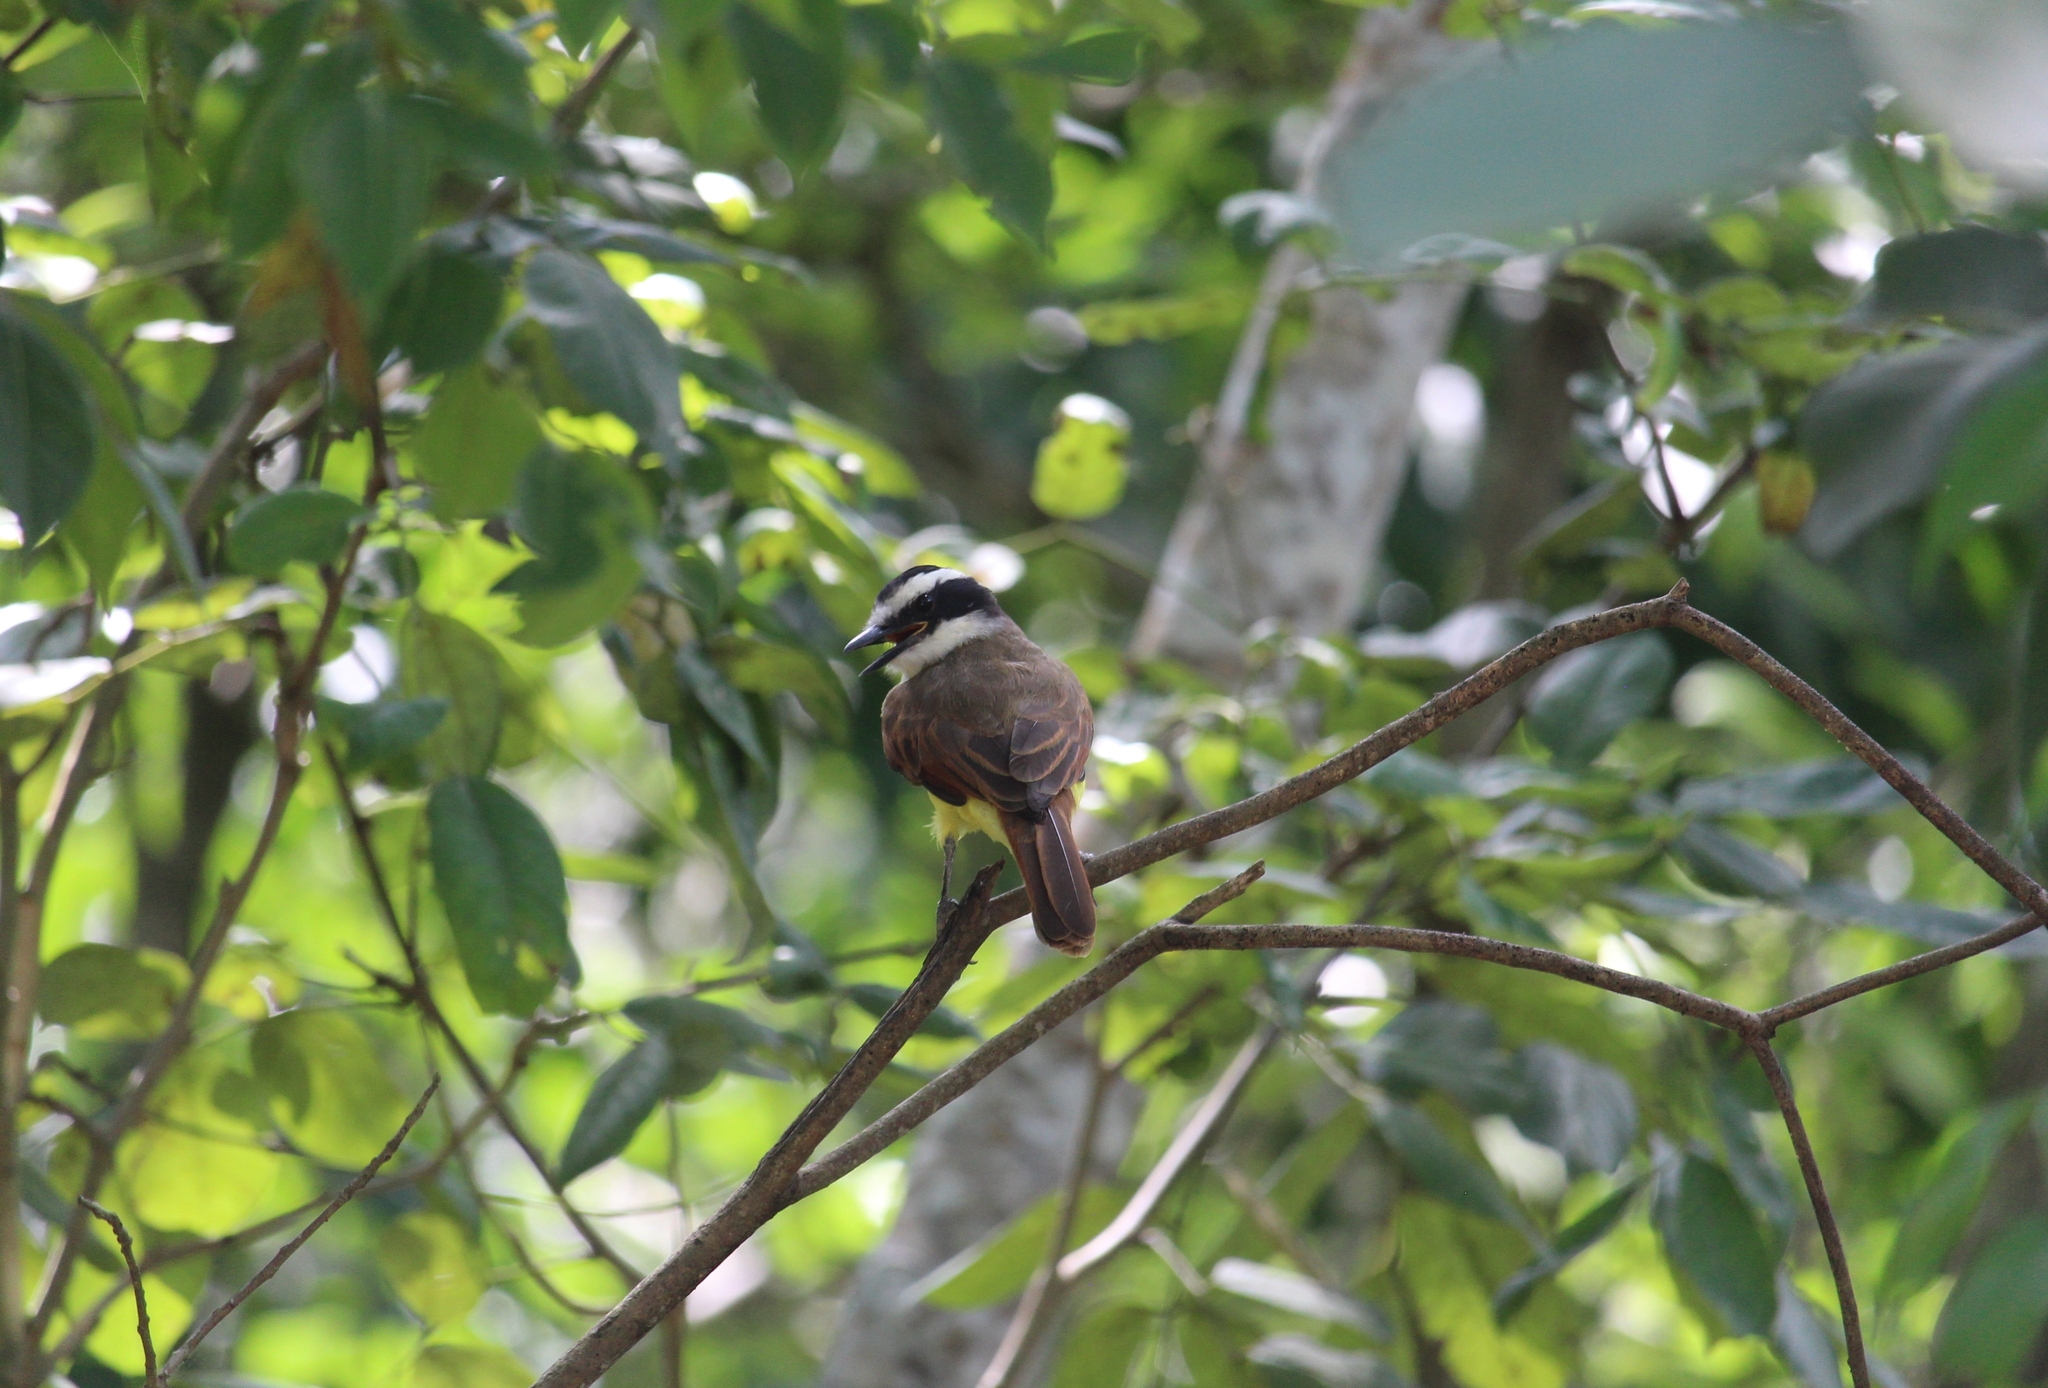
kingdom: Animalia
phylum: Chordata
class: Aves
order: Passeriformes
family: Tyrannidae
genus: Pitangus
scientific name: Pitangus sulphuratus
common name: Great kiskadee
